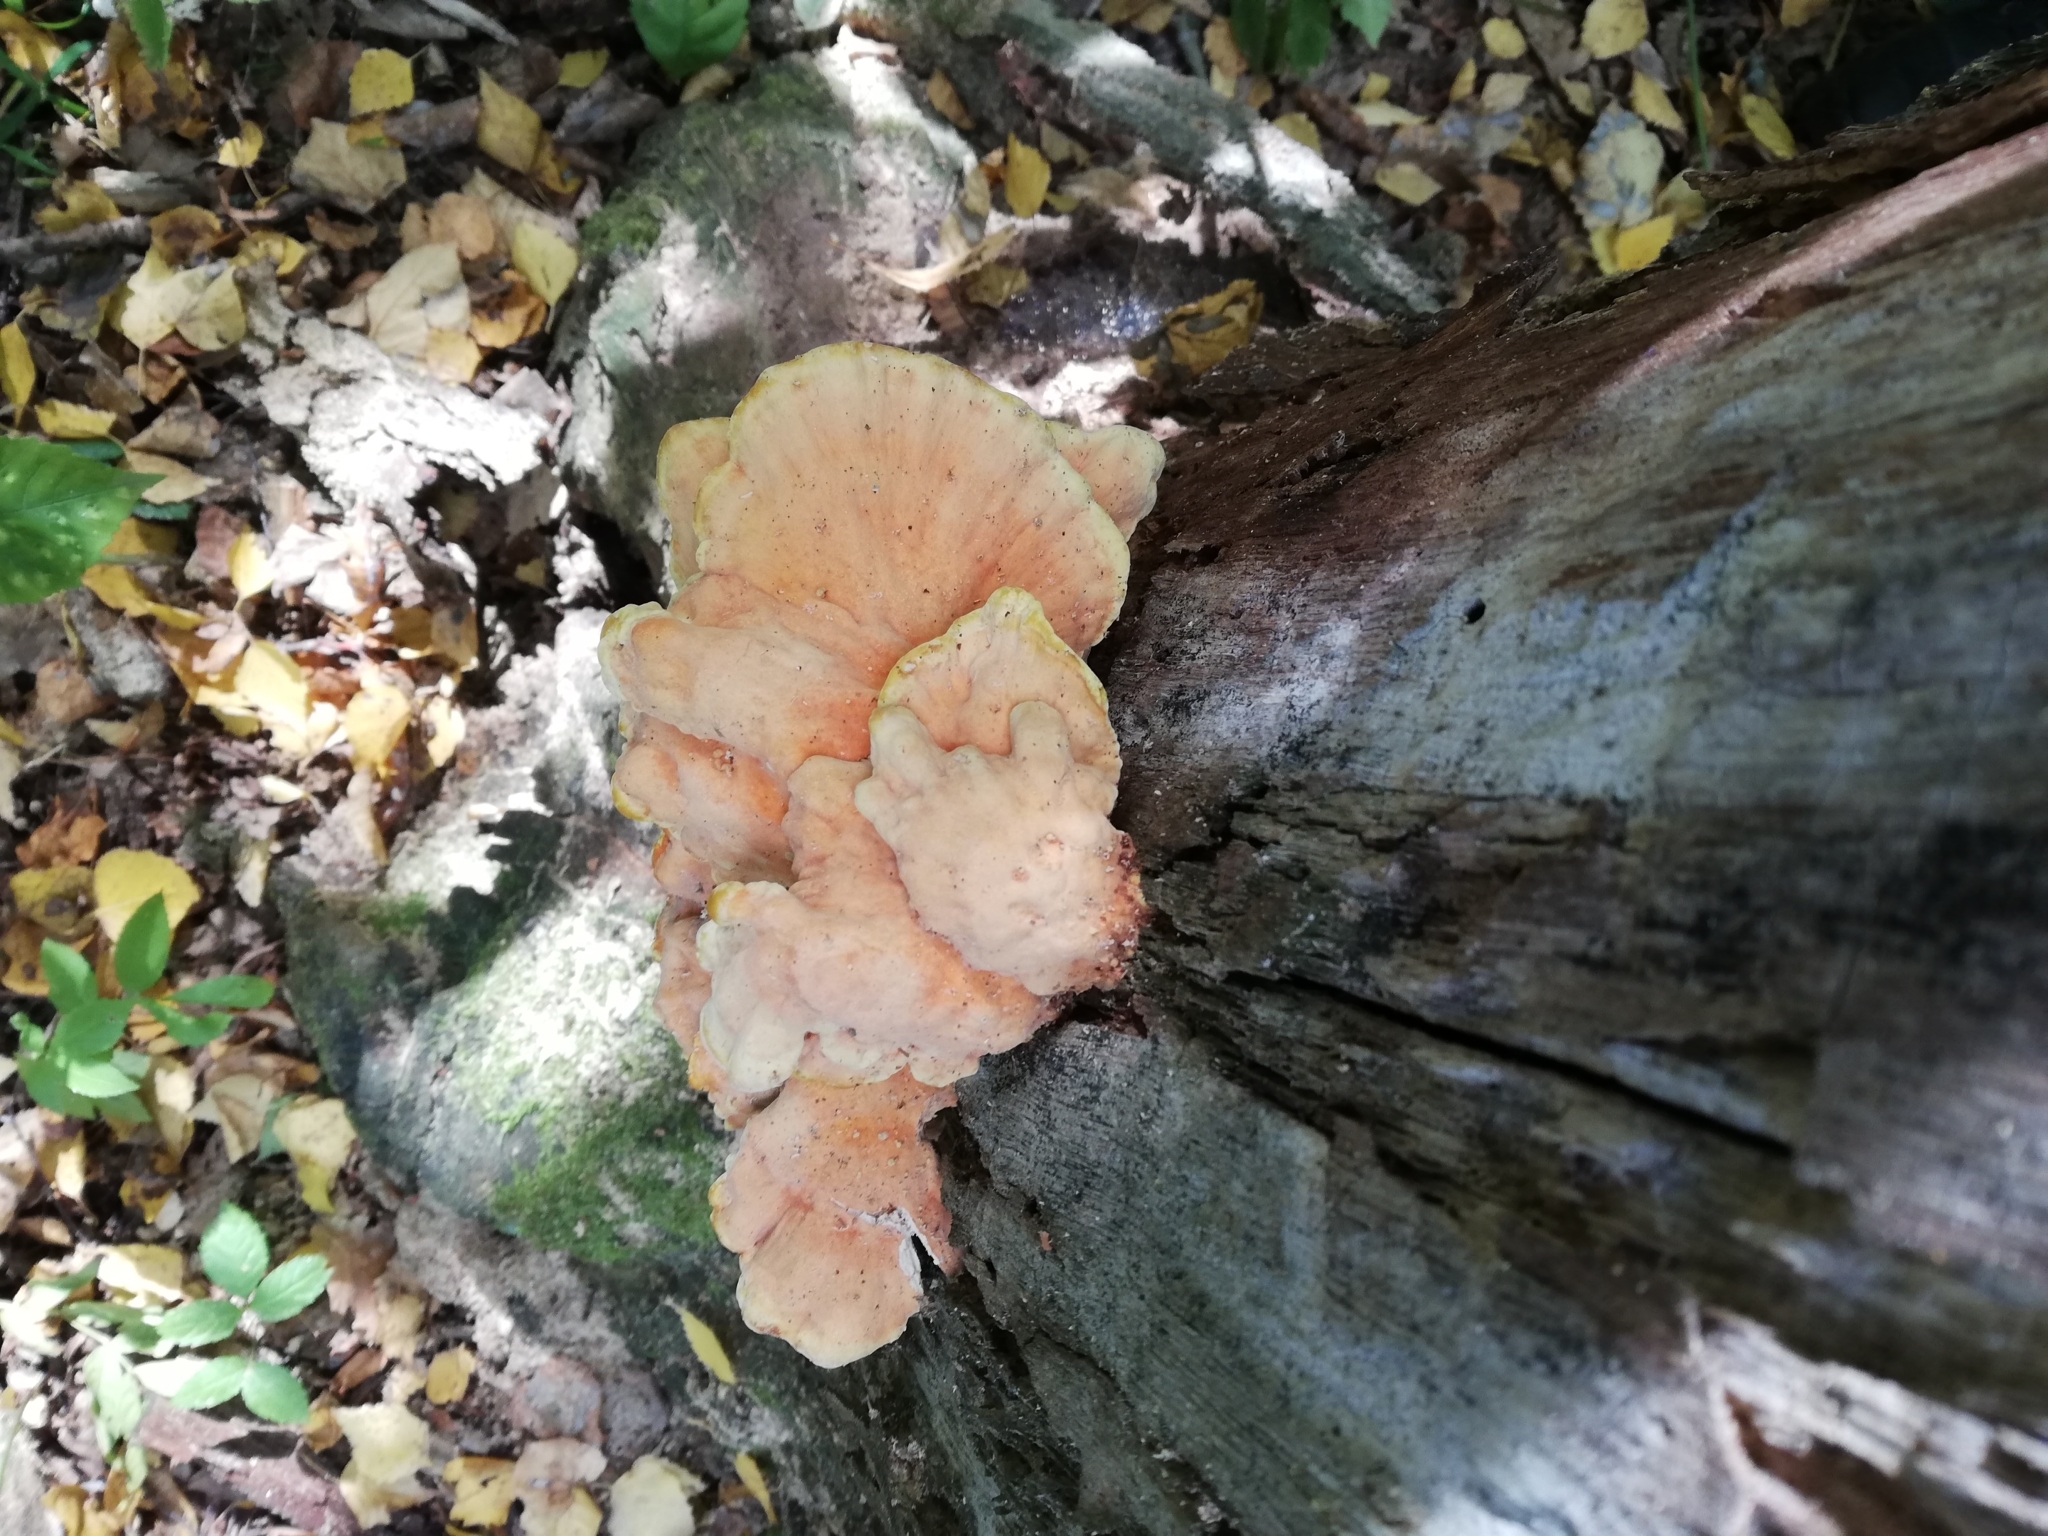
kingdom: Fungi
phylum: Basidiomycota
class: Agaricomycetes
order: Polyporales
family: Laetiporaceae
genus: Laetiporus
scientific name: Laetiporus sulphureus
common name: Chicken of the woods
